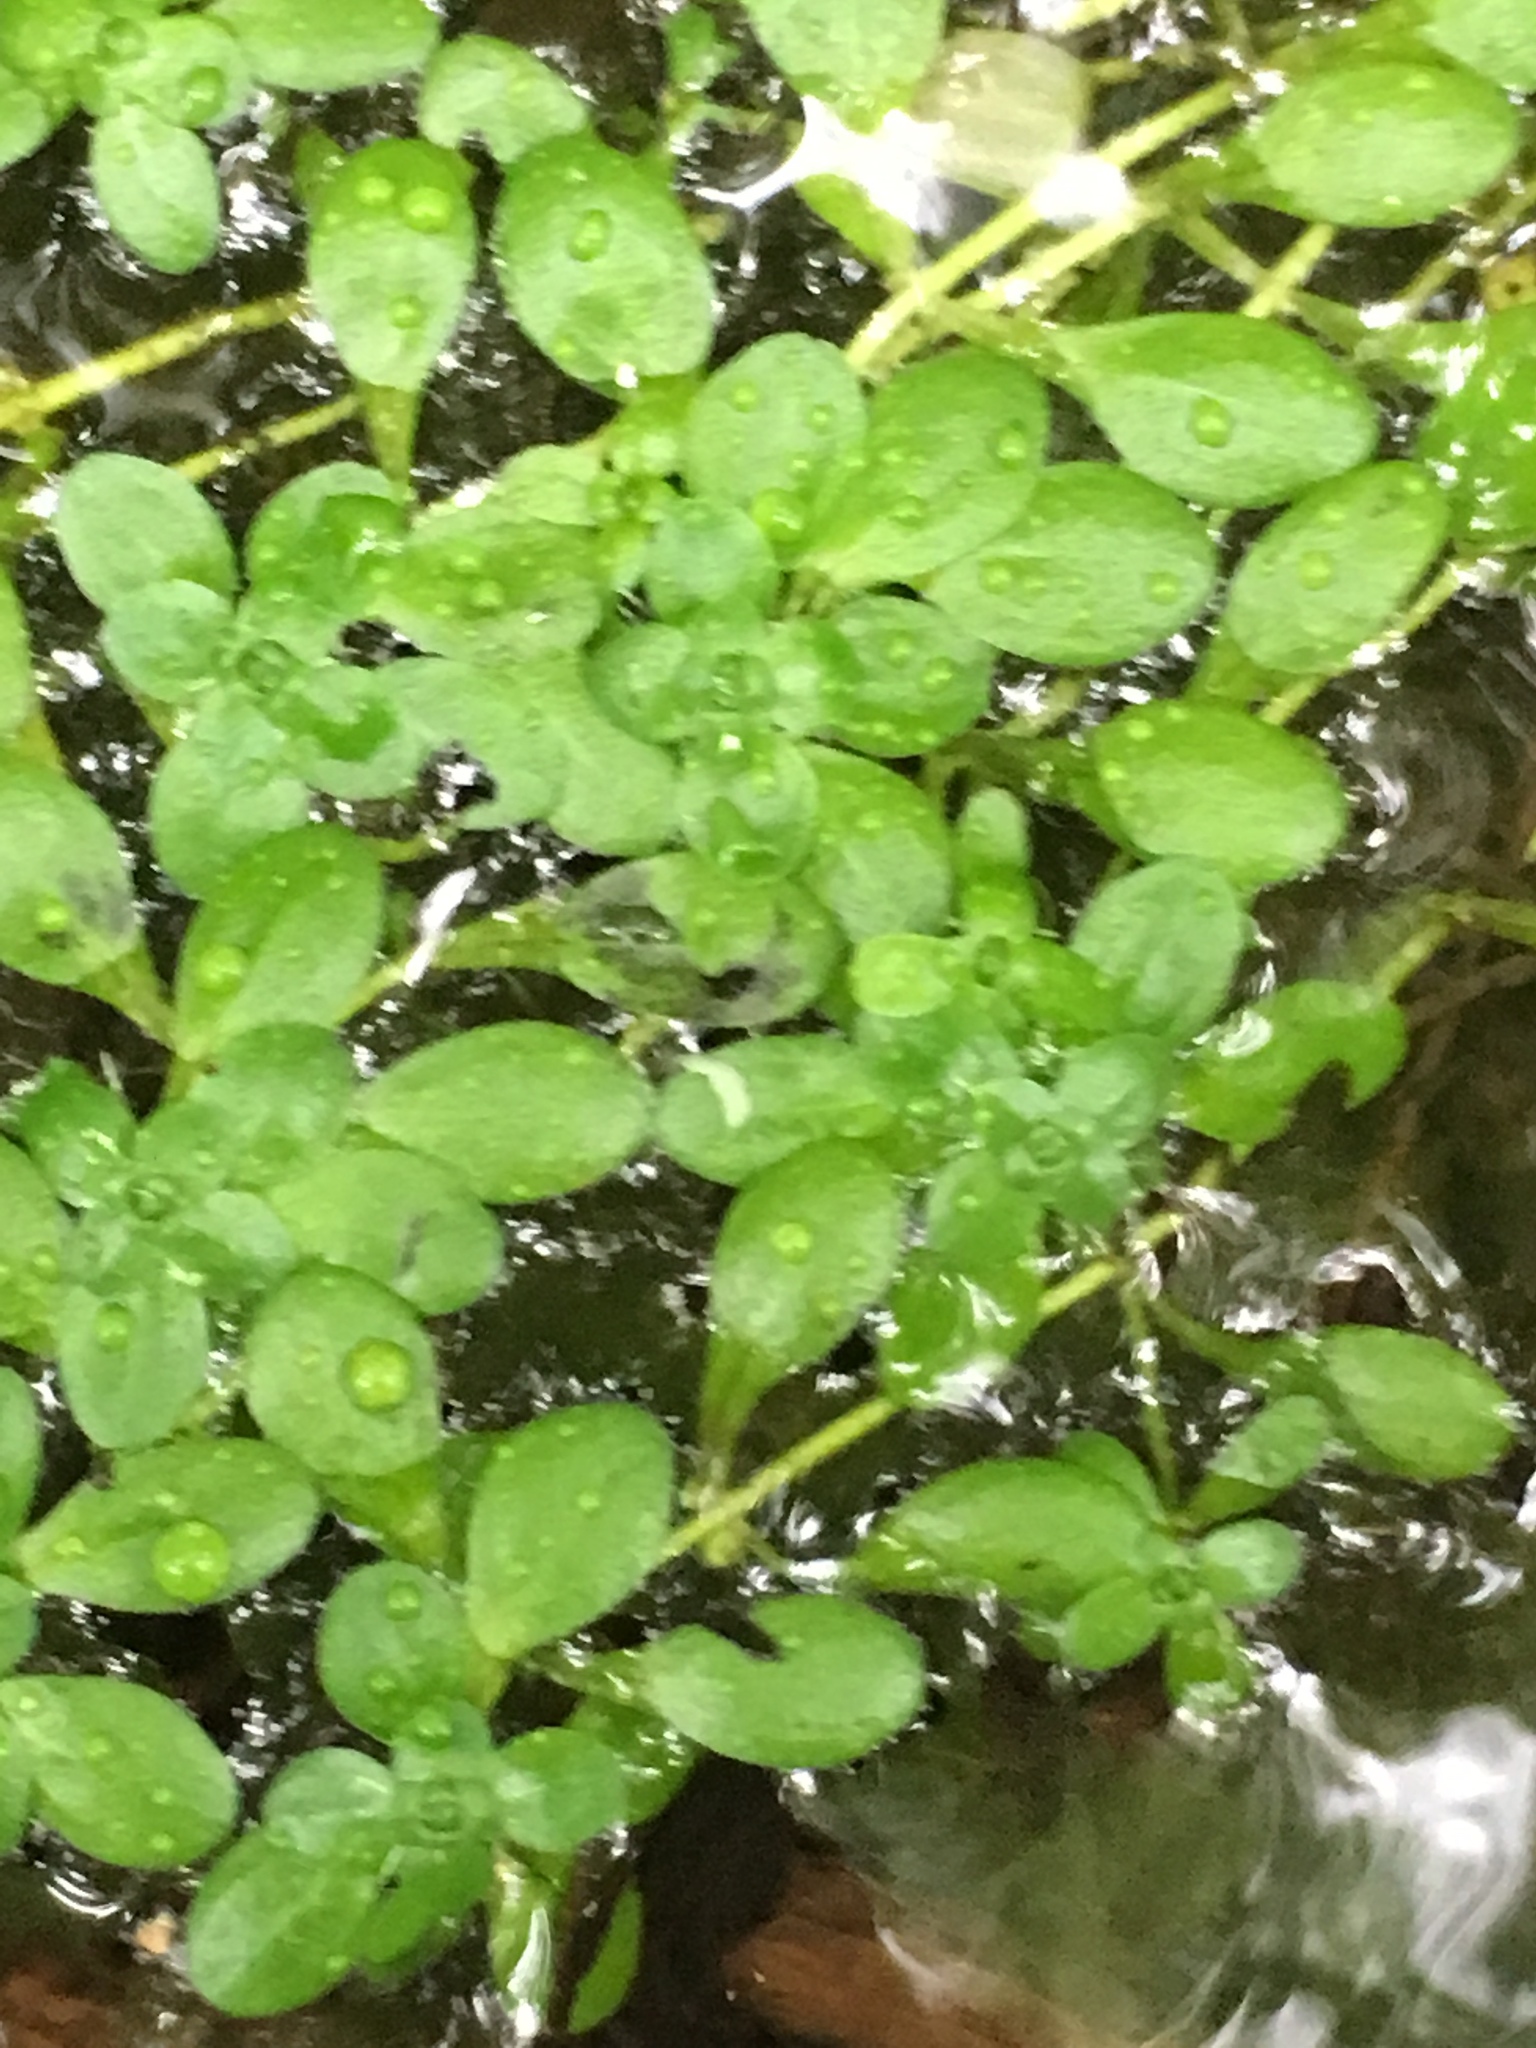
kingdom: Plantae
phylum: Tracheophyta
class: Magnoliopsida
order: Lamiales
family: Plantaginaceae
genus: Callitriche
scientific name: Callitriche stagnalis
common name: Common water-starwort
